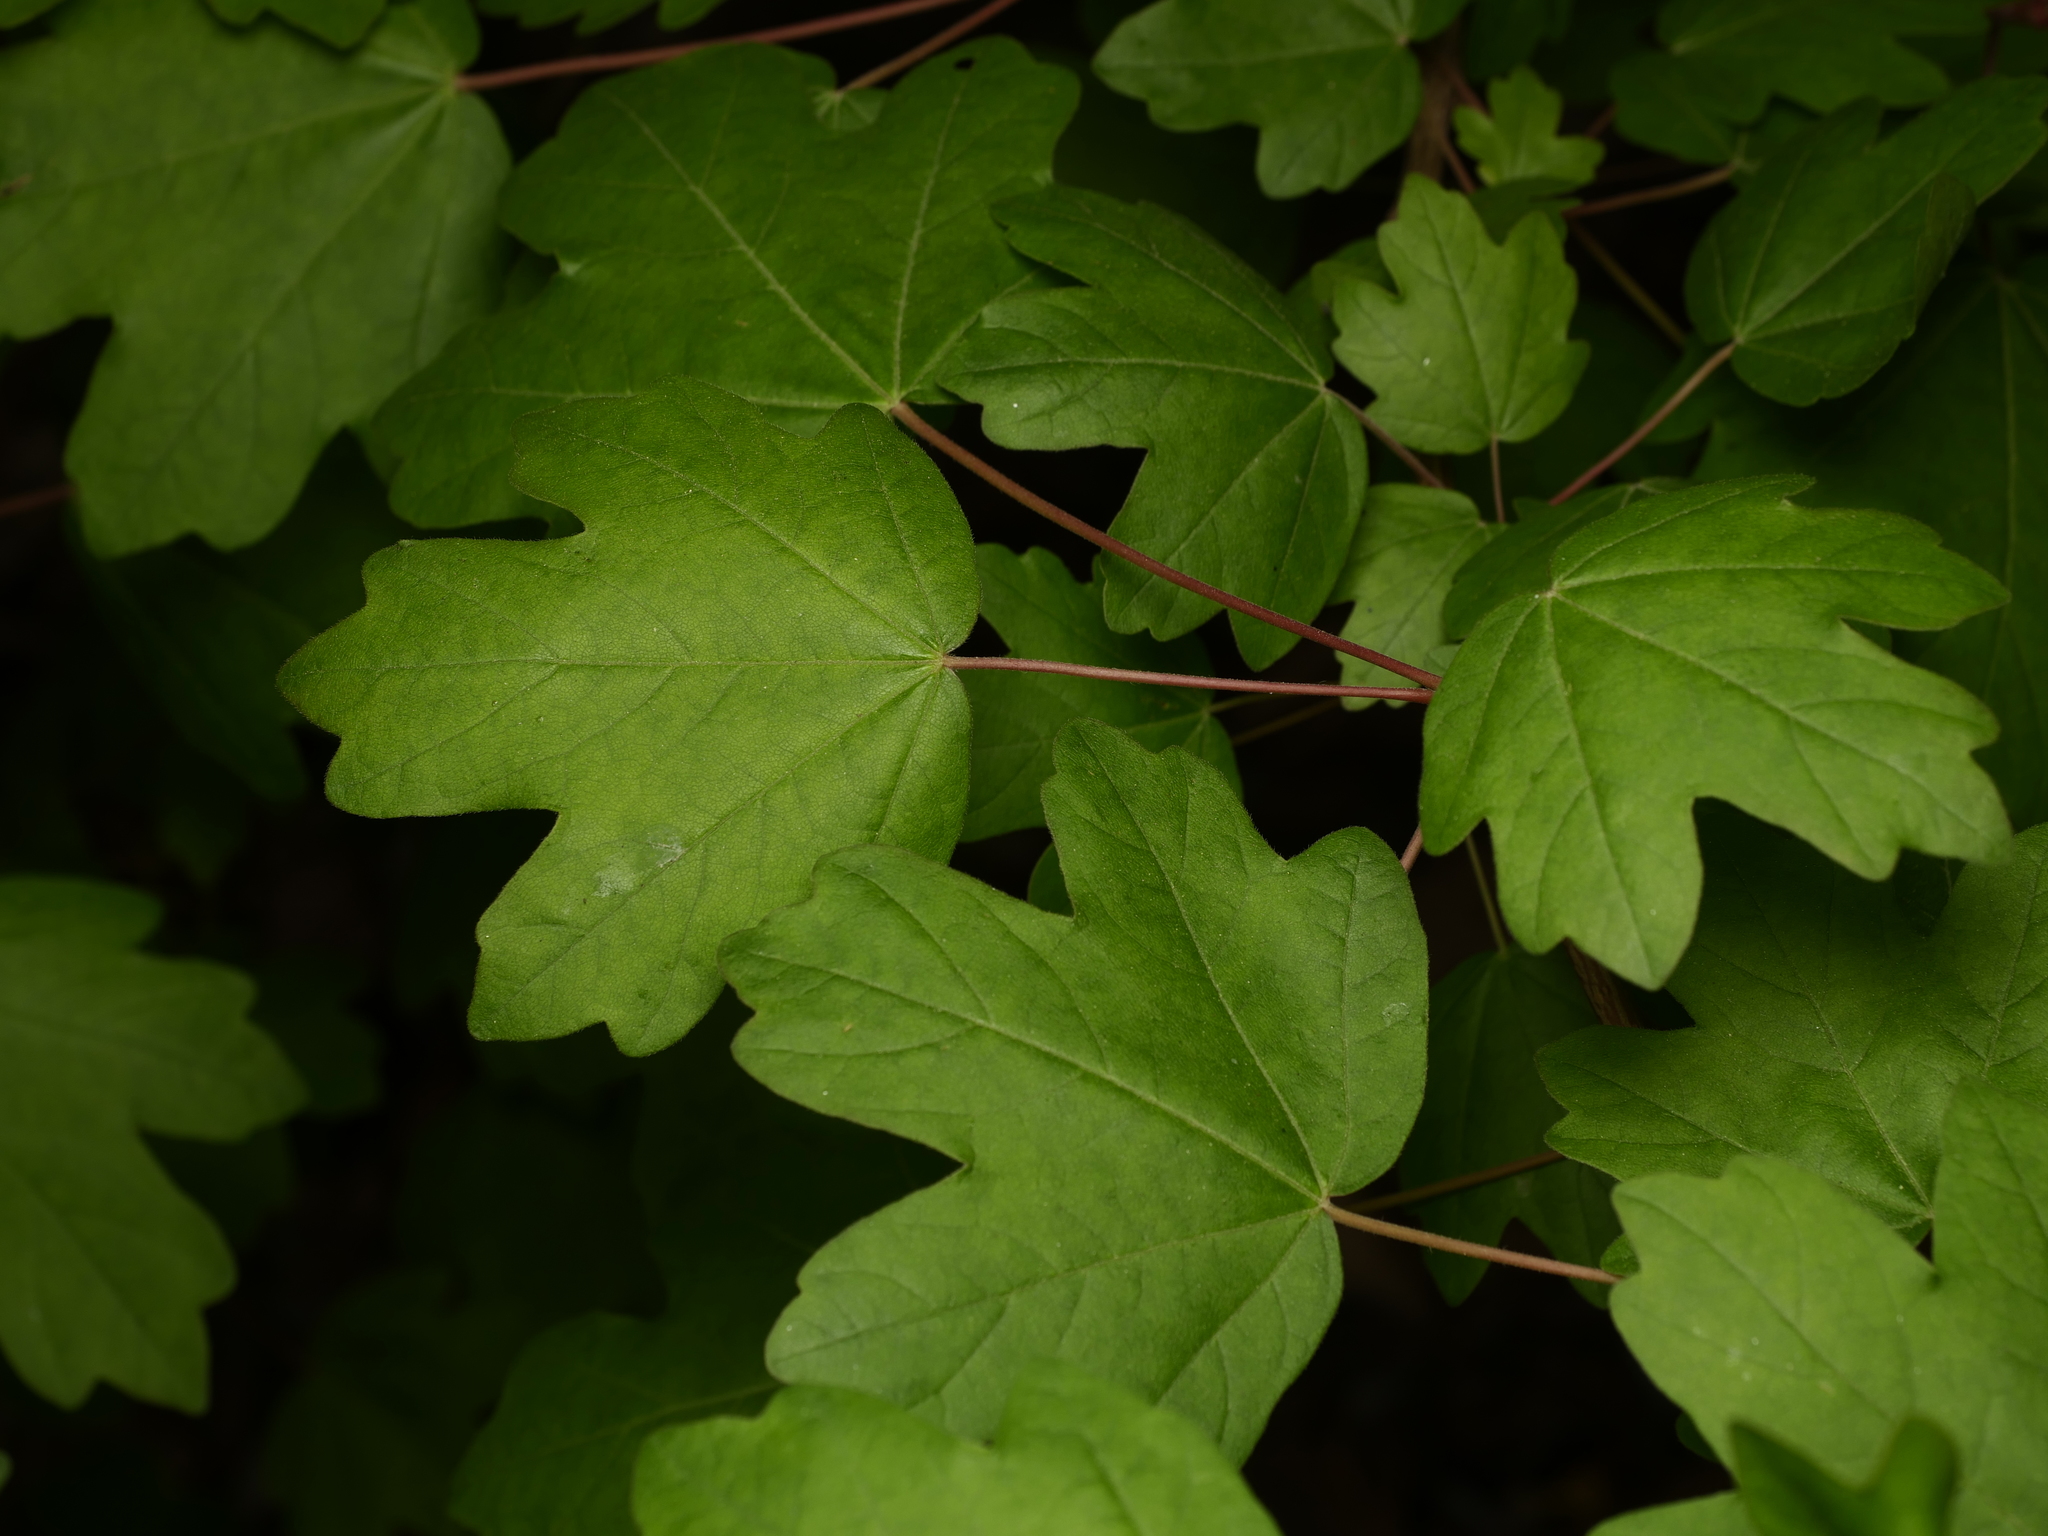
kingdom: Plantae
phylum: Tracheophyta
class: Magnoliopsida
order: Sapindales
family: Sapindaceae
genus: Acer
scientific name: Acer campestre
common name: Field maple
